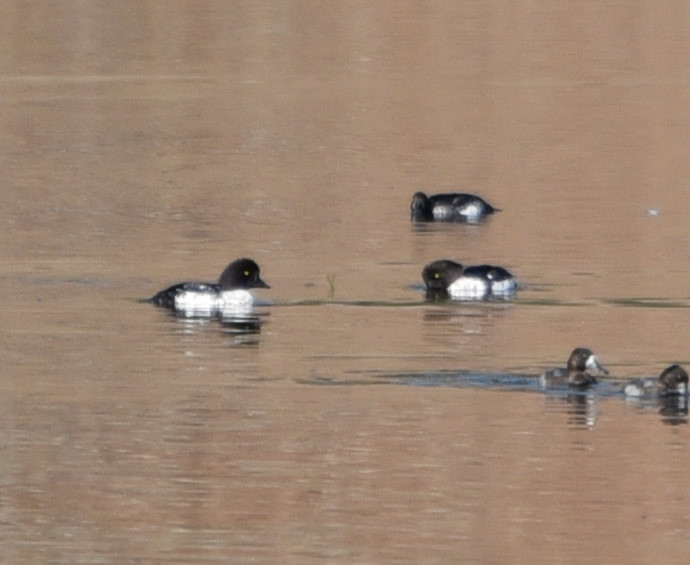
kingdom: Animalia
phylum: Chordata
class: Aves
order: Anseriformes
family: Anatidae
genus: Bucephala
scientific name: Bucephala islandica
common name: Barrow's goldeneye
